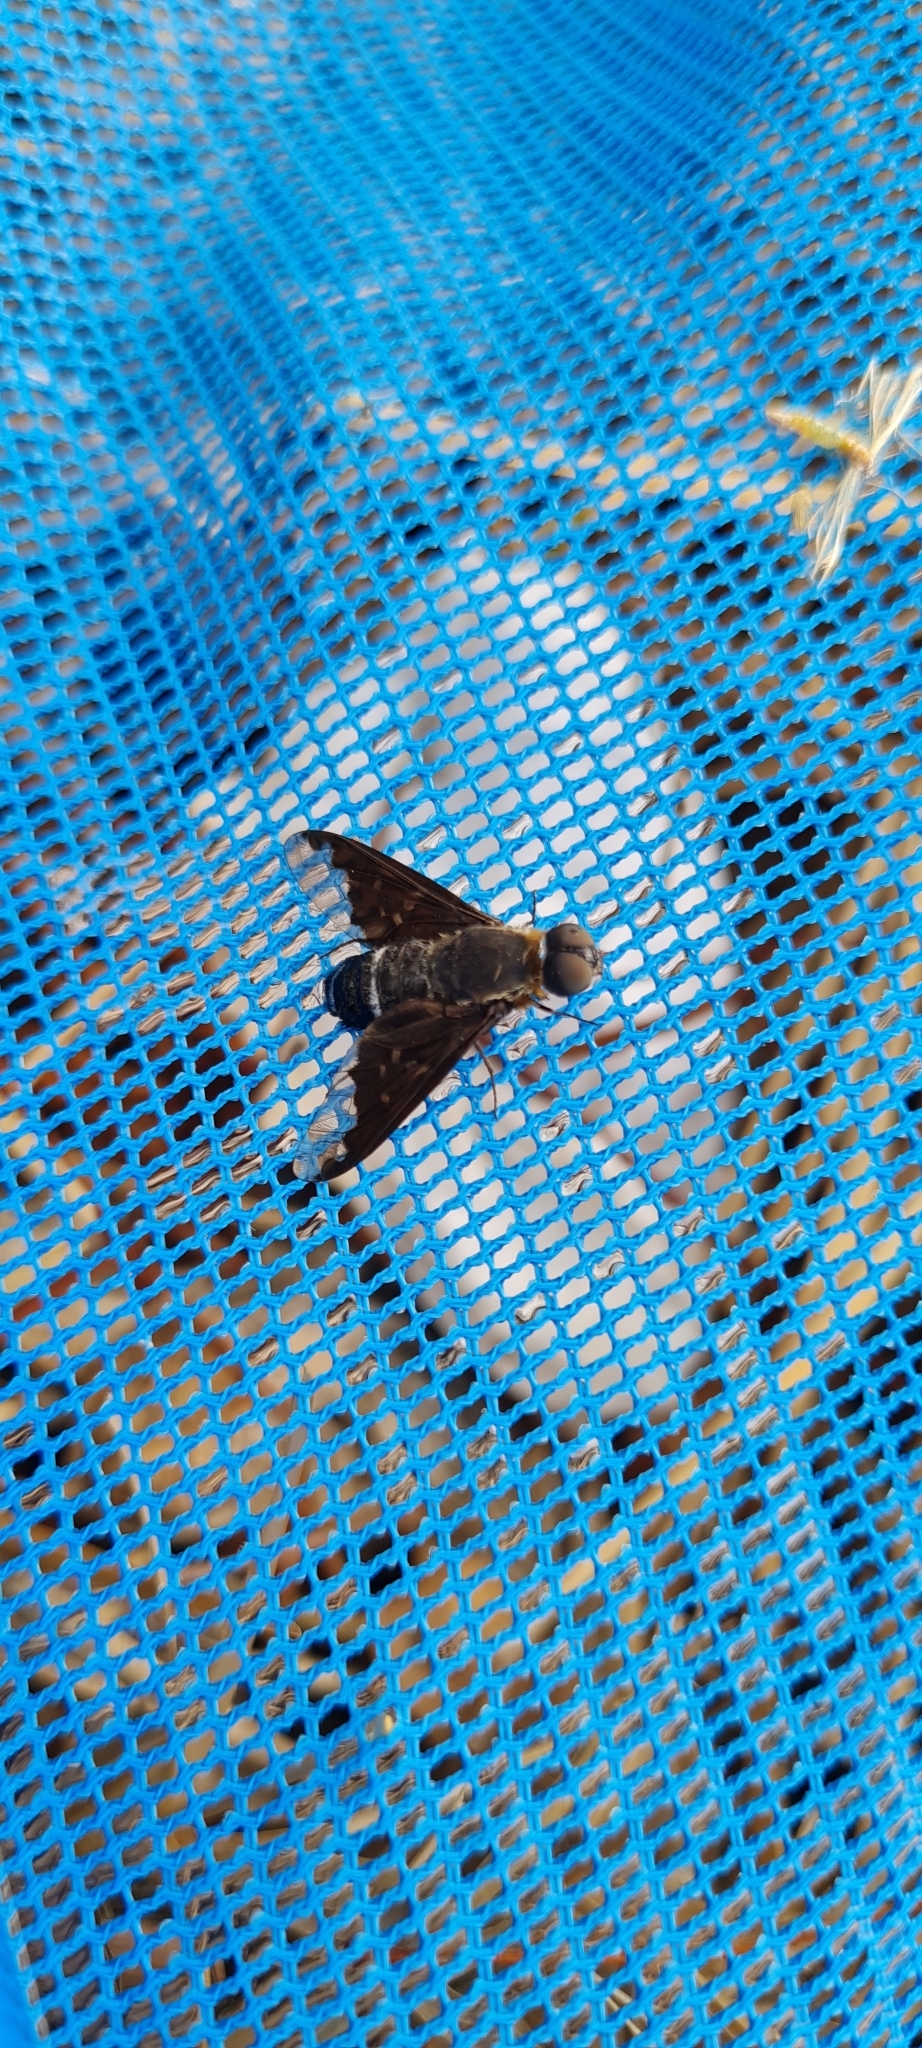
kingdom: Animalia
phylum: Arthropoda
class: Insecta
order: Diptera
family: Bombyliidae
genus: Hemipenthes
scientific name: Hemipenthes velutina
